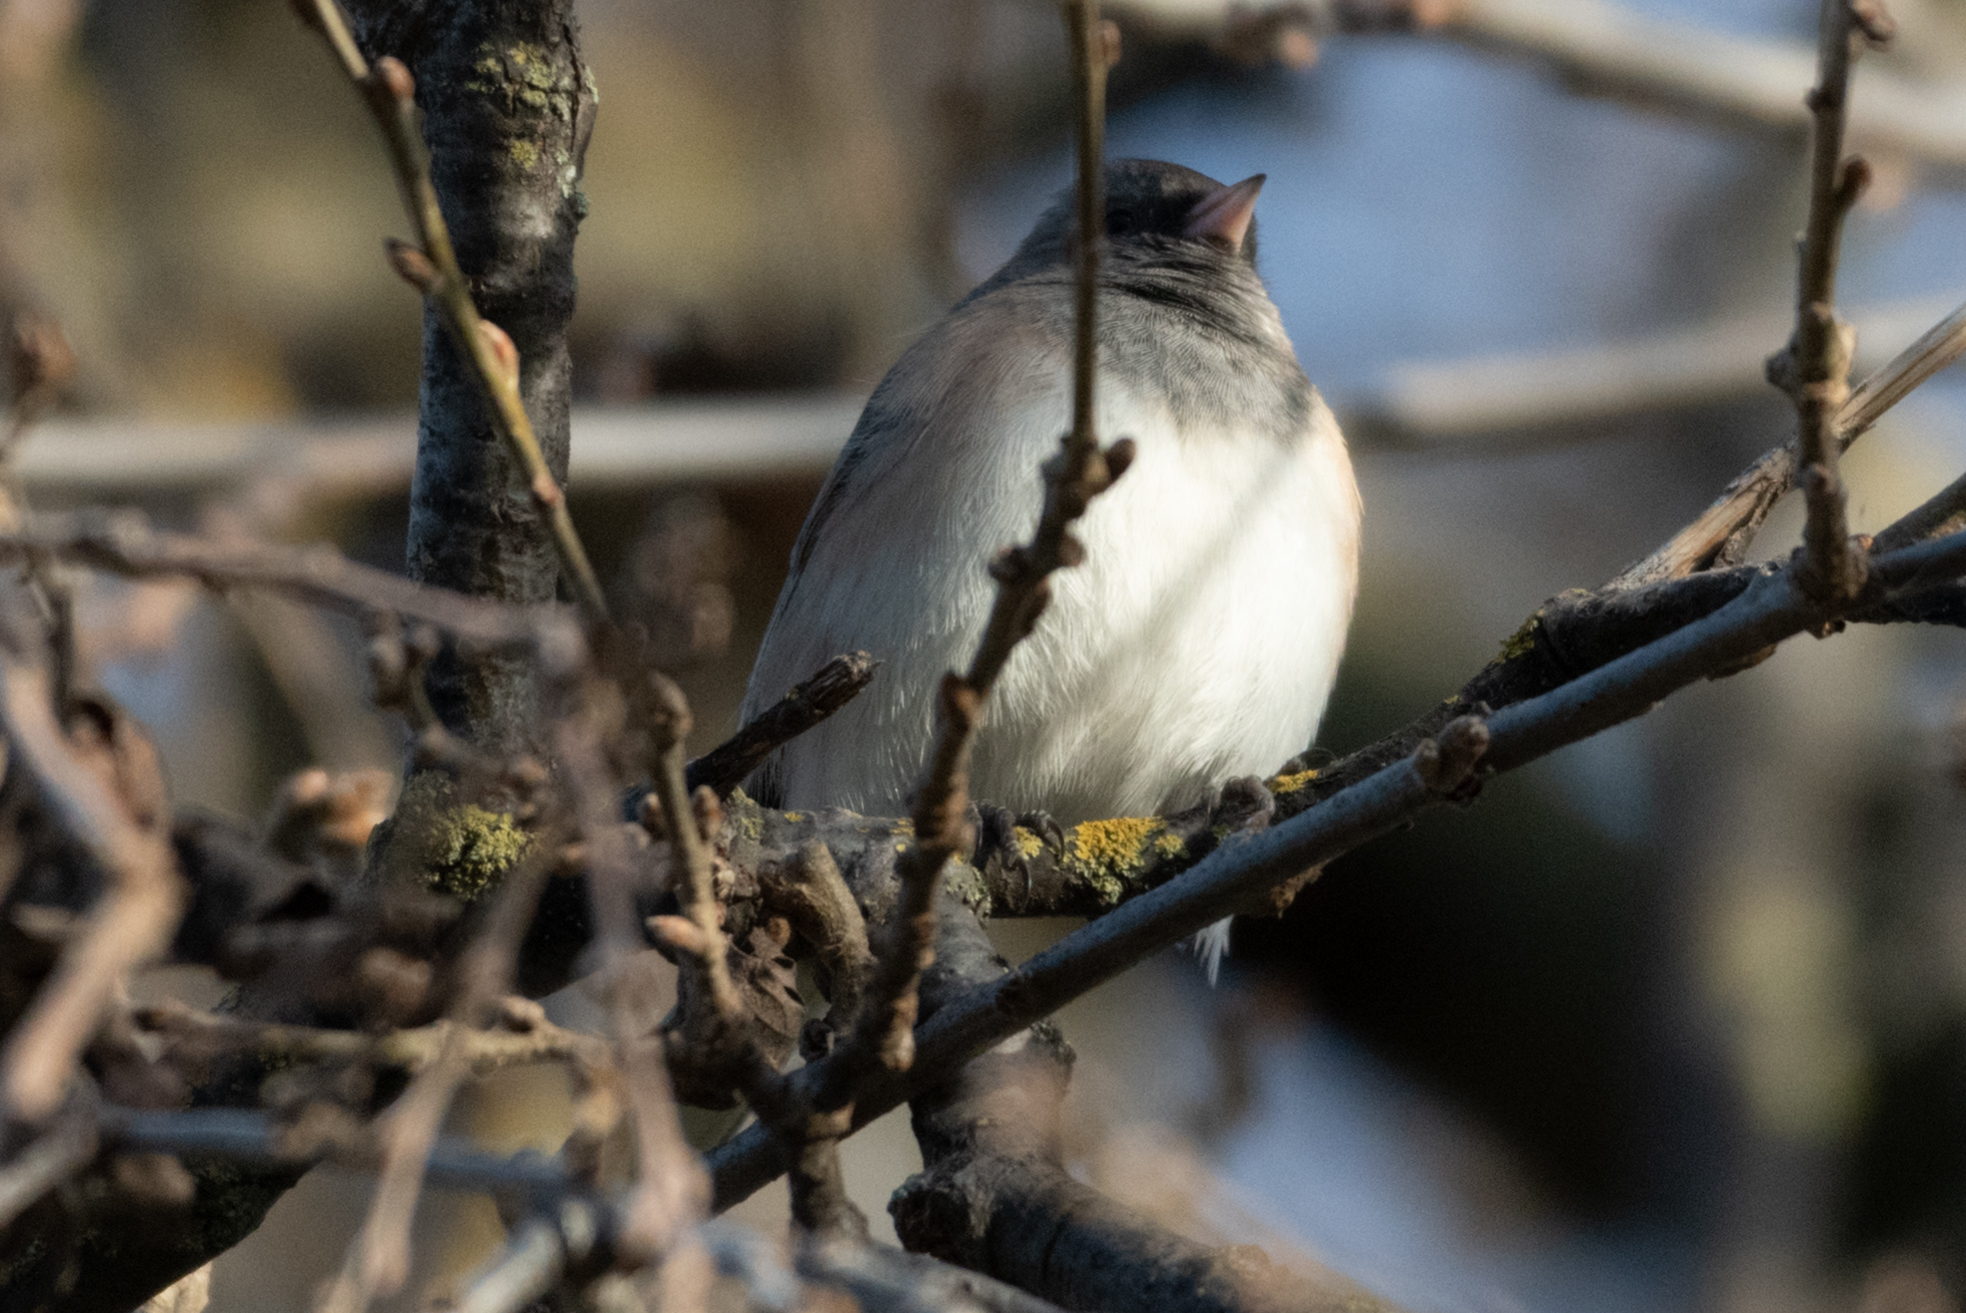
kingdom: Animalia
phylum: Chordata
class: Aves
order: Passeriformes
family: Passerellidae
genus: Junco
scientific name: Junco hyemalis
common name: Dark-eyed junco
